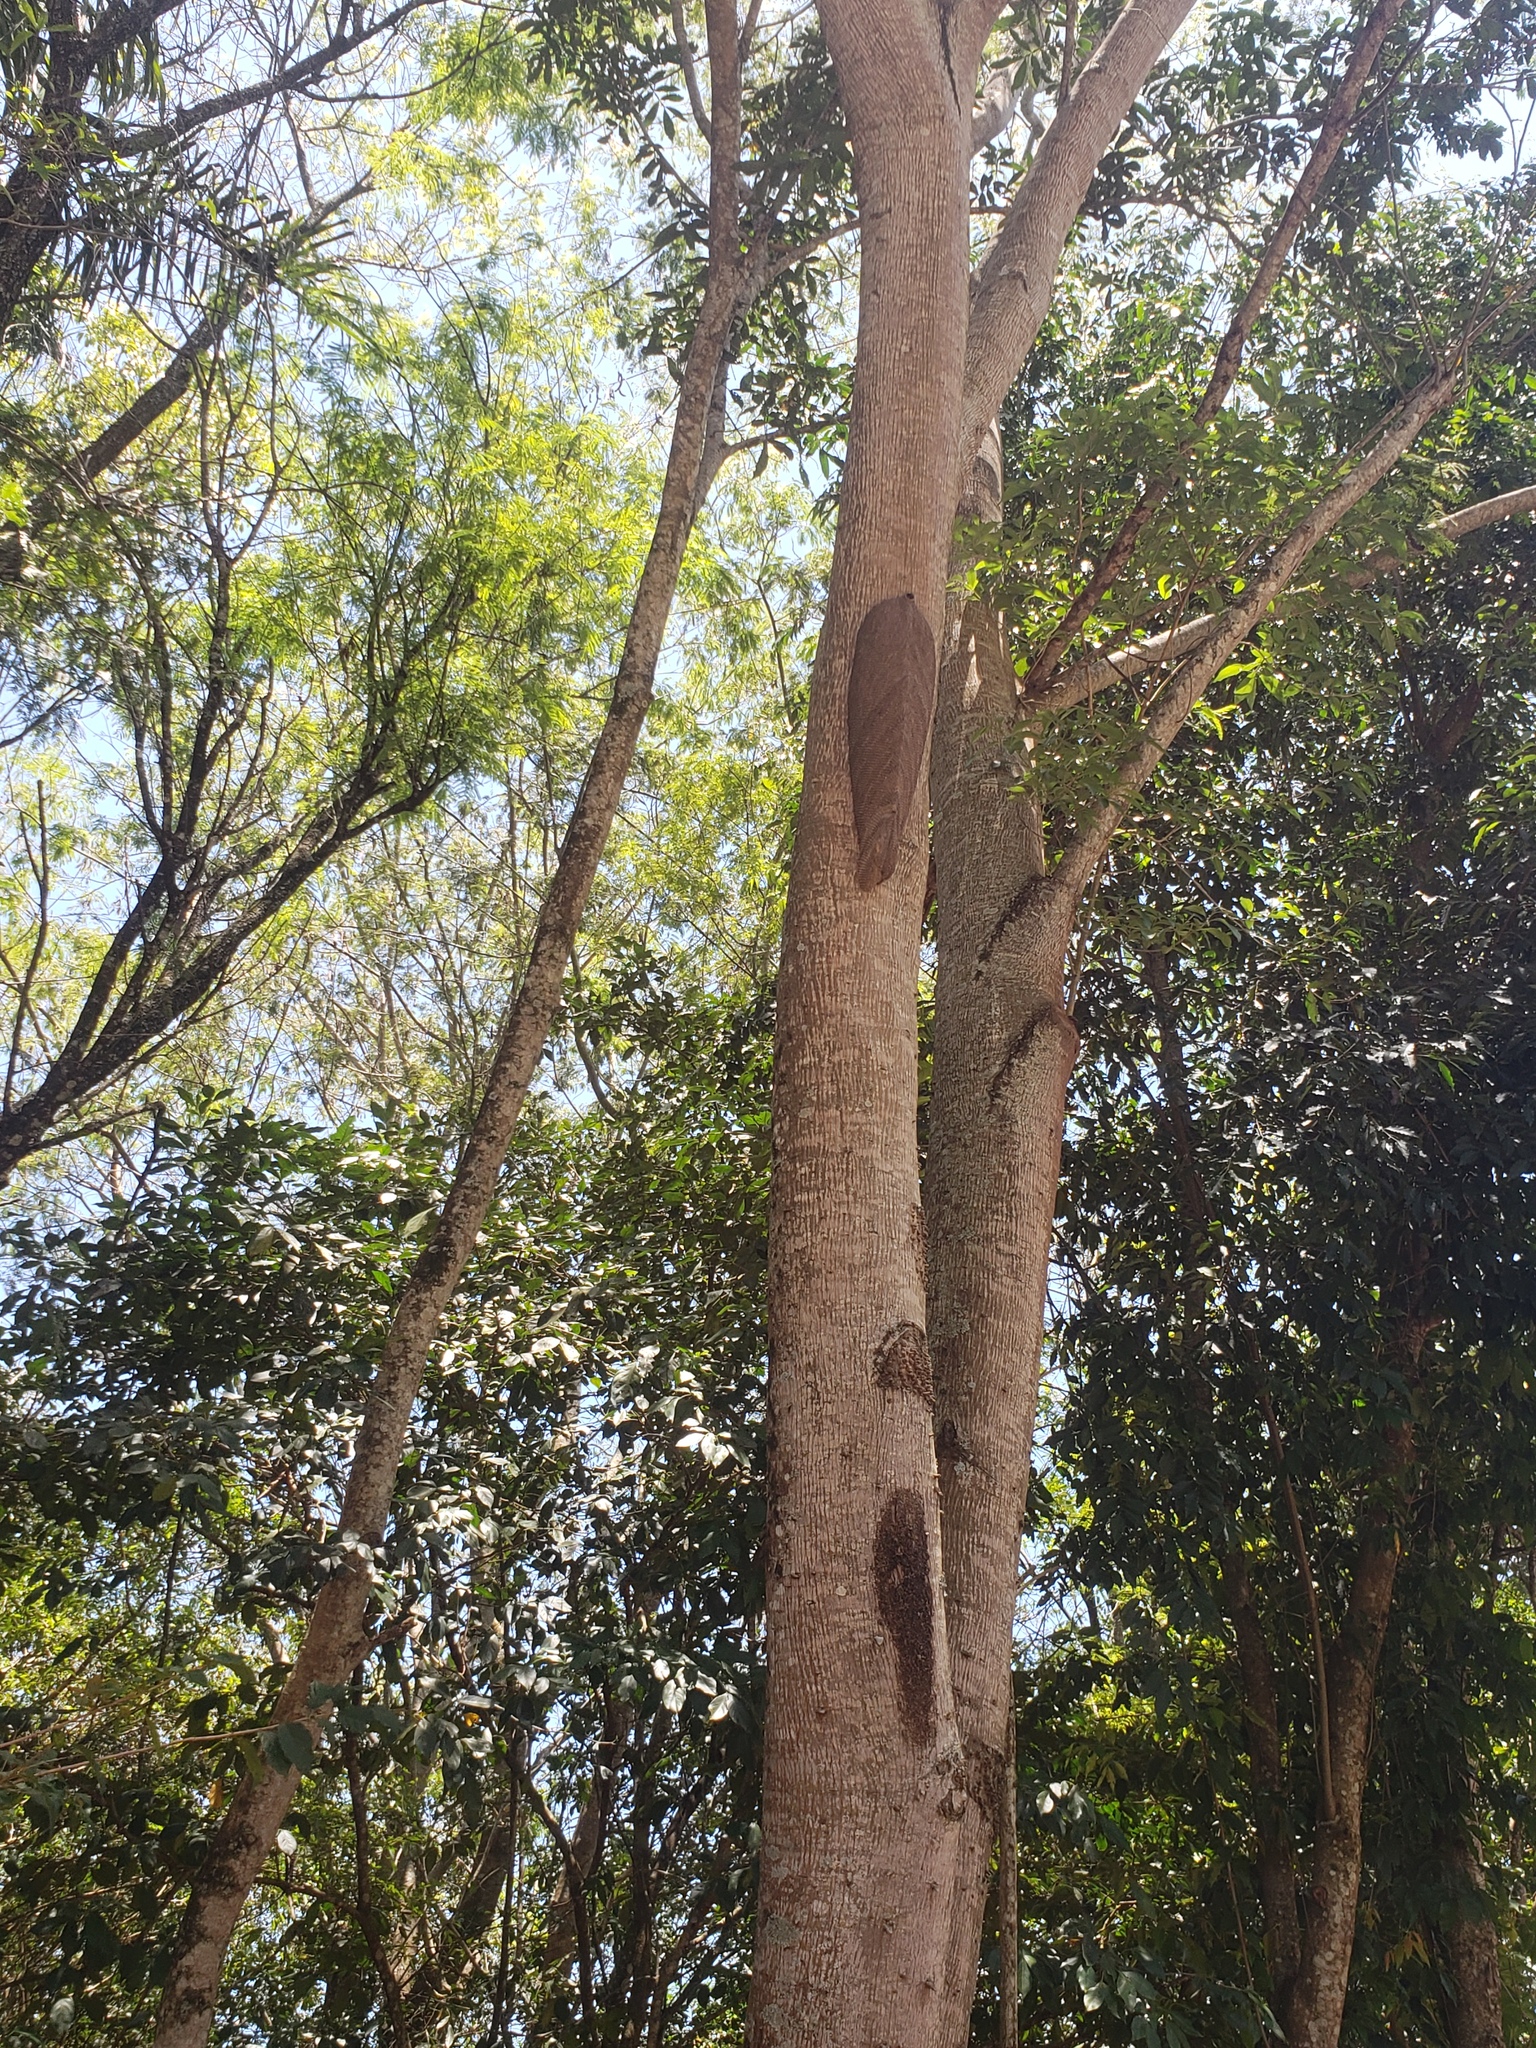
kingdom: Animalia
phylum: Arthropoda
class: Insecta
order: Hymenoptera
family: Vespidae
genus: Synoeca
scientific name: Synoeca cyanea
